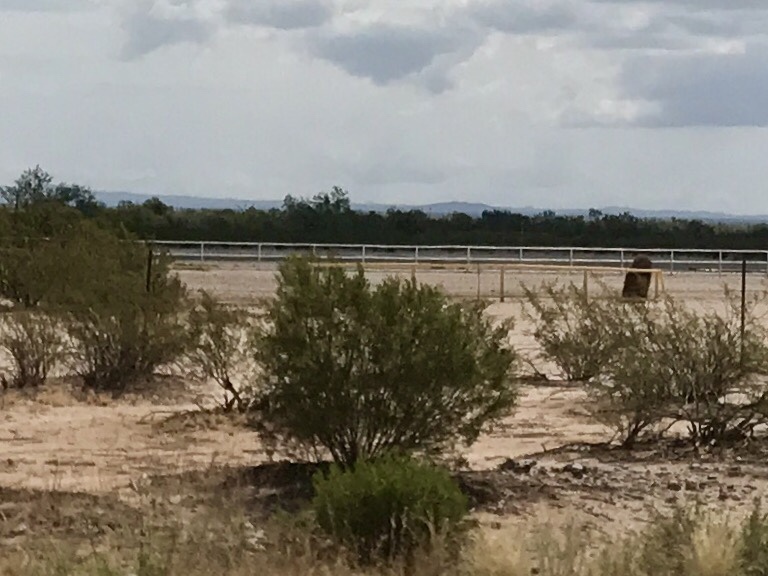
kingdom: Plantae
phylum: Tracheophyta
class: Magnoliopsida
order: Zygophyllales
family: Zygophyllaceae
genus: Larrea
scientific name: Larrea tridentata
